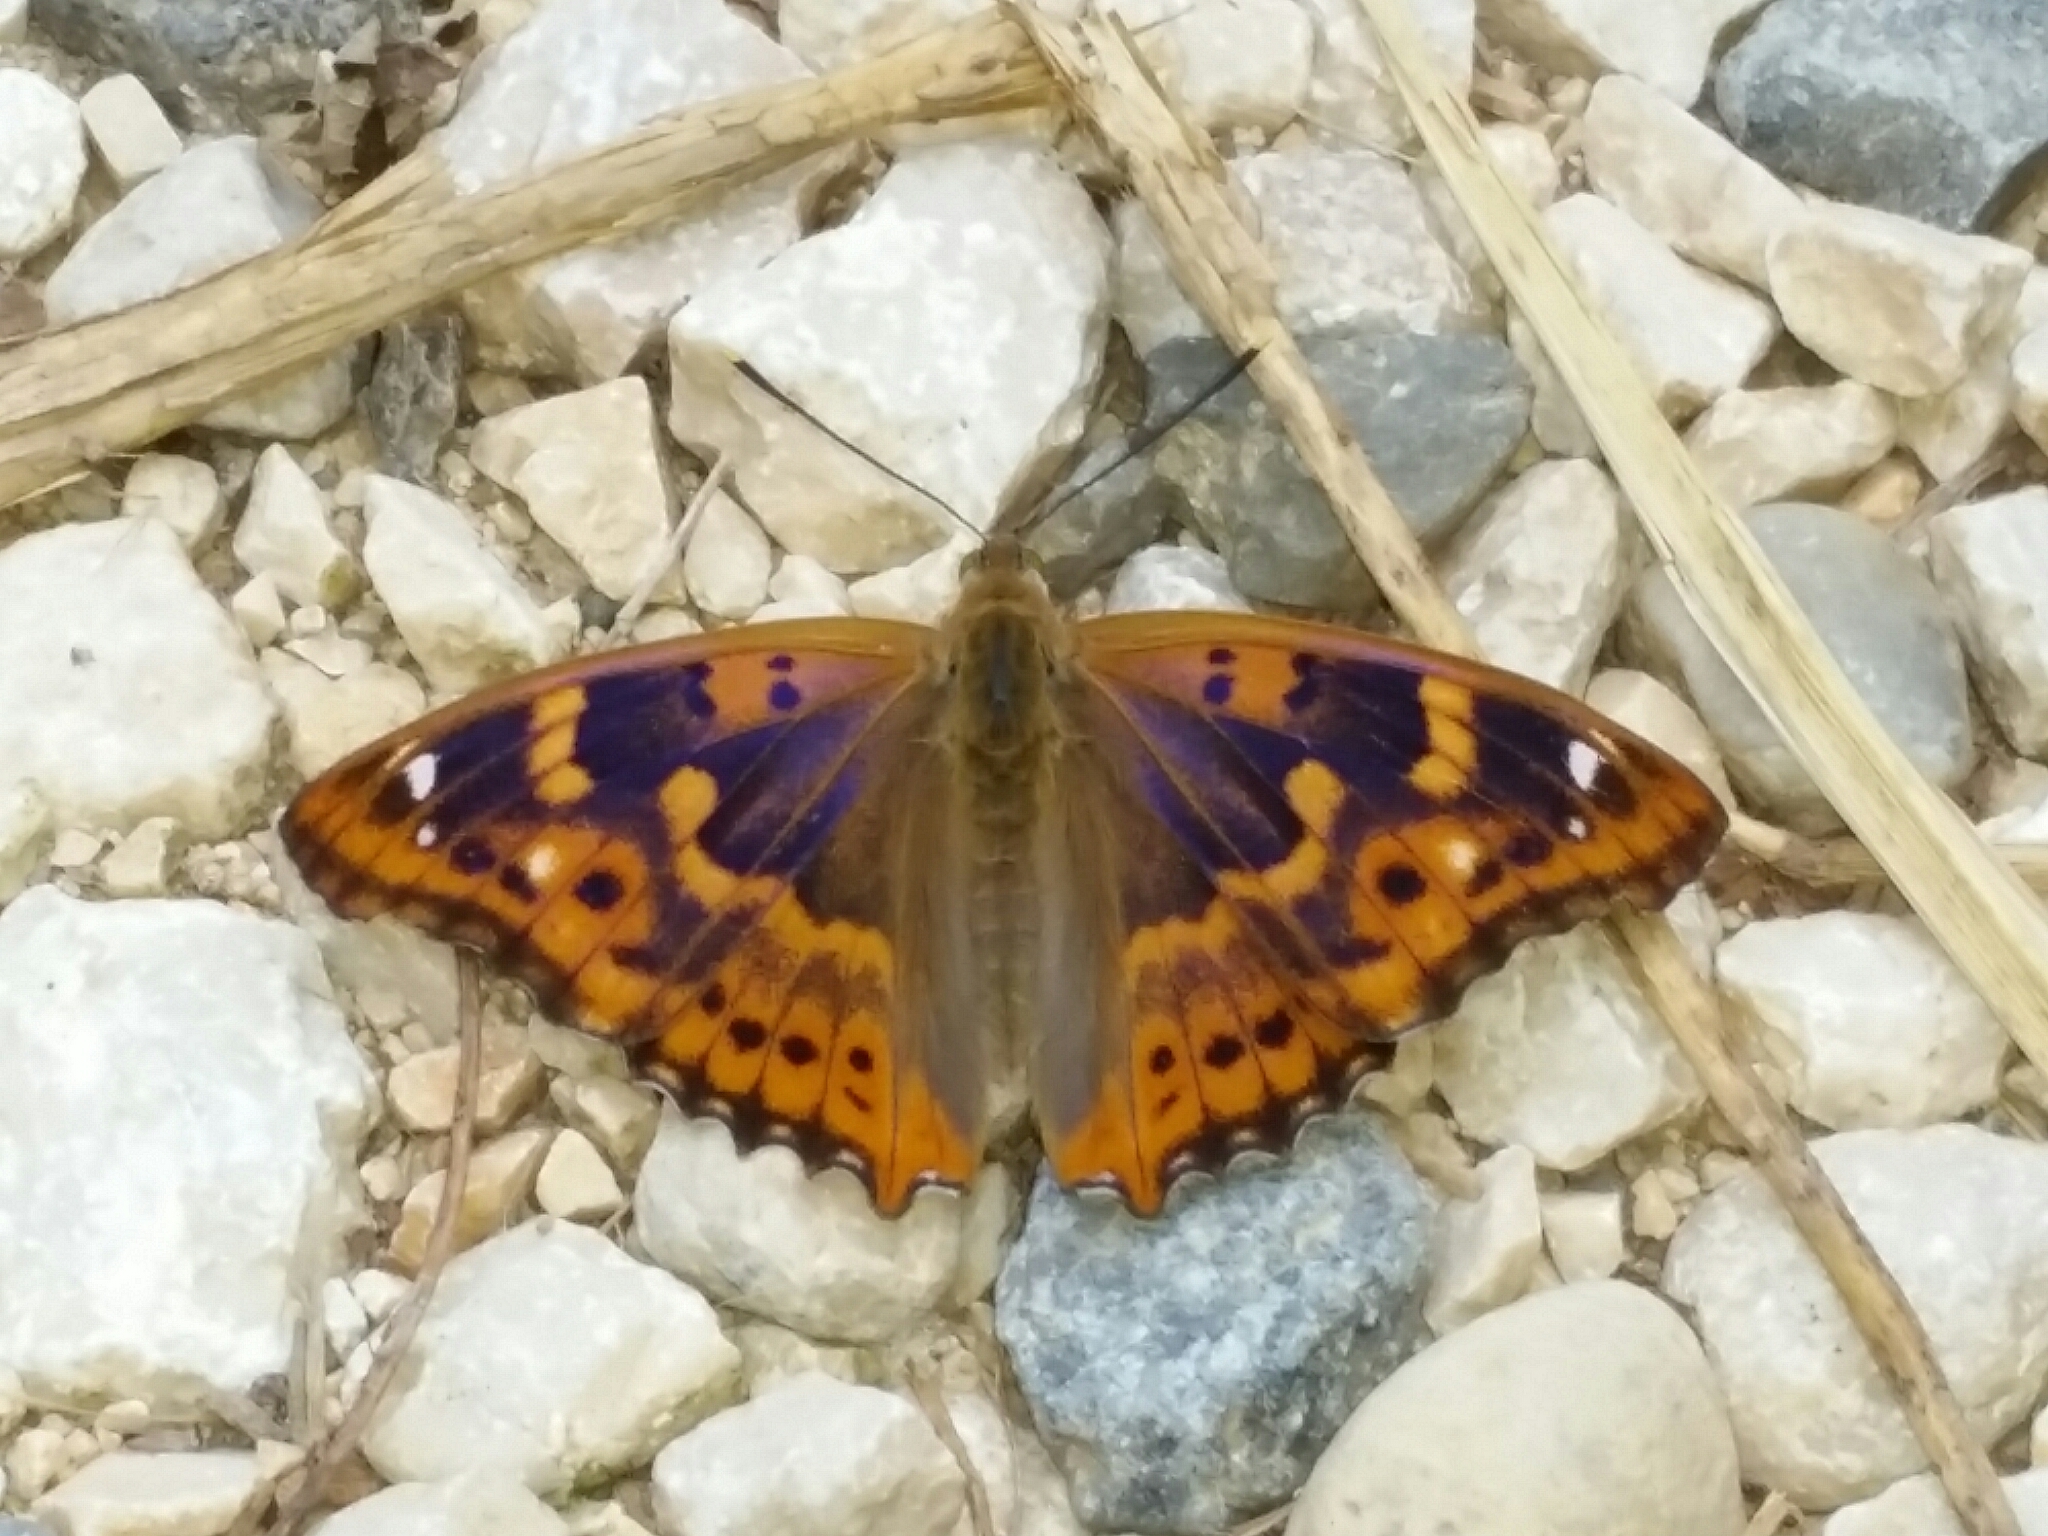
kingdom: Animalia
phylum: Arthropoda
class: Insecta
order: Lepidoptera
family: Nymphalidae
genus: Apatura
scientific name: Apatura ilia
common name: Lesser purple emperor
